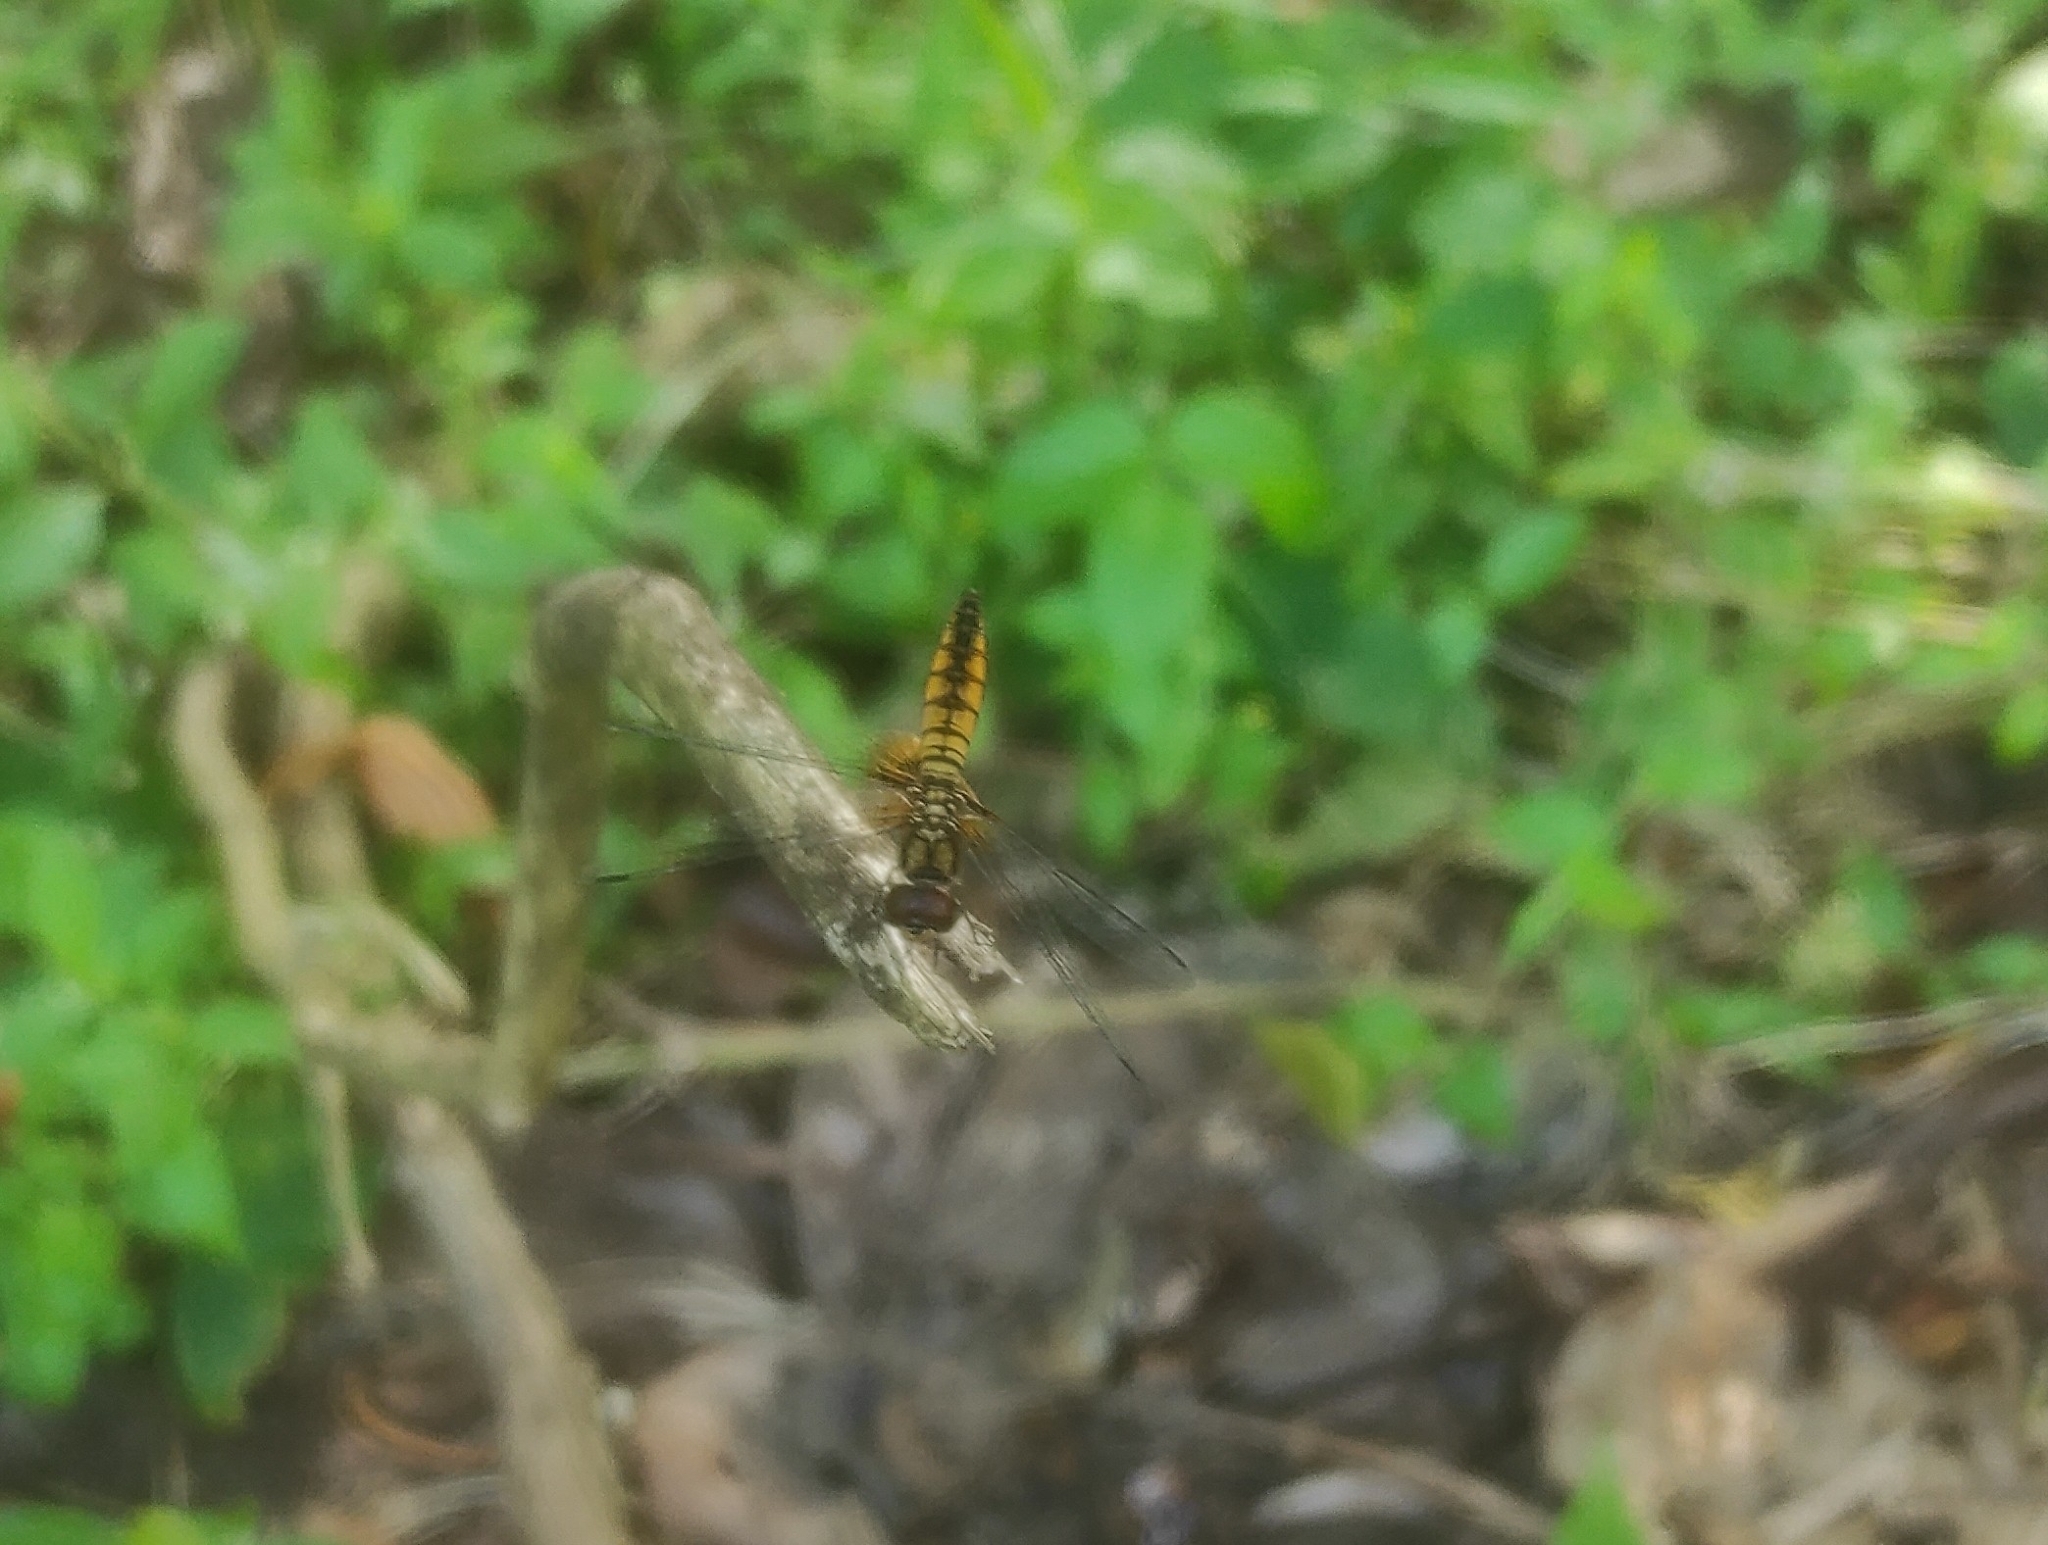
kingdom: Animalia
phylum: Arthropoda
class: Insecta
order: Odonata
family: Libellulidae
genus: Aethriamanta
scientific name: Aethriamanta brevipennis
